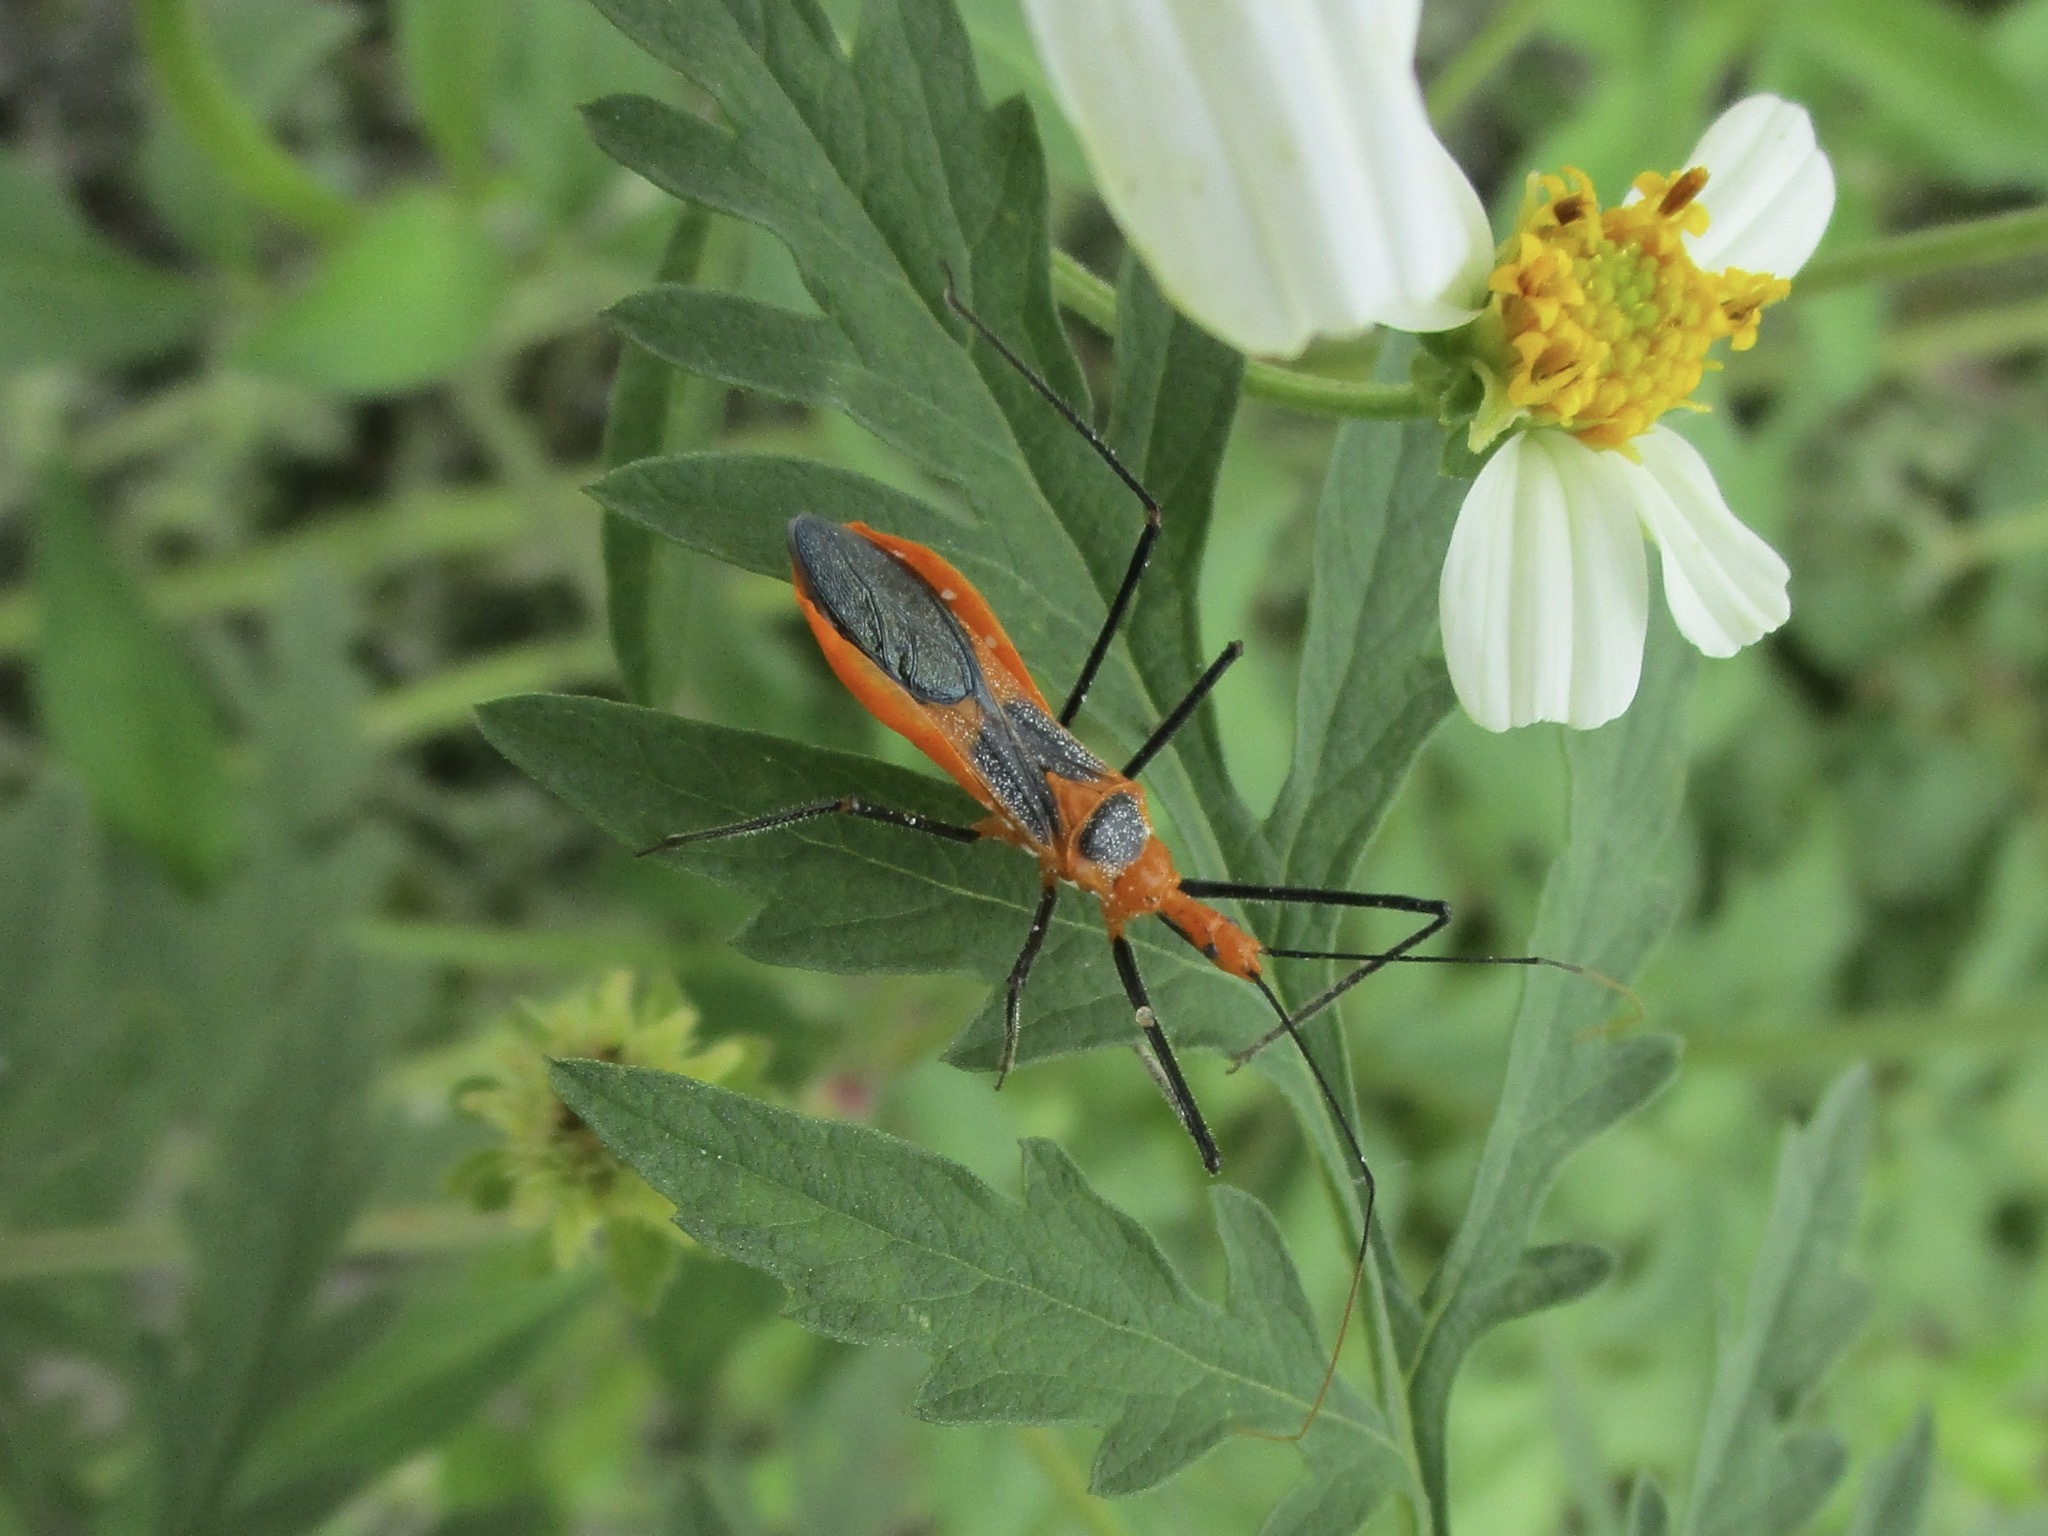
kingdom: Animalia
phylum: Arthropoda
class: Insecta
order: Hemiptera
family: Reduviidae
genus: Zelus
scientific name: Zelus longipes
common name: Milkweed assassin bug
